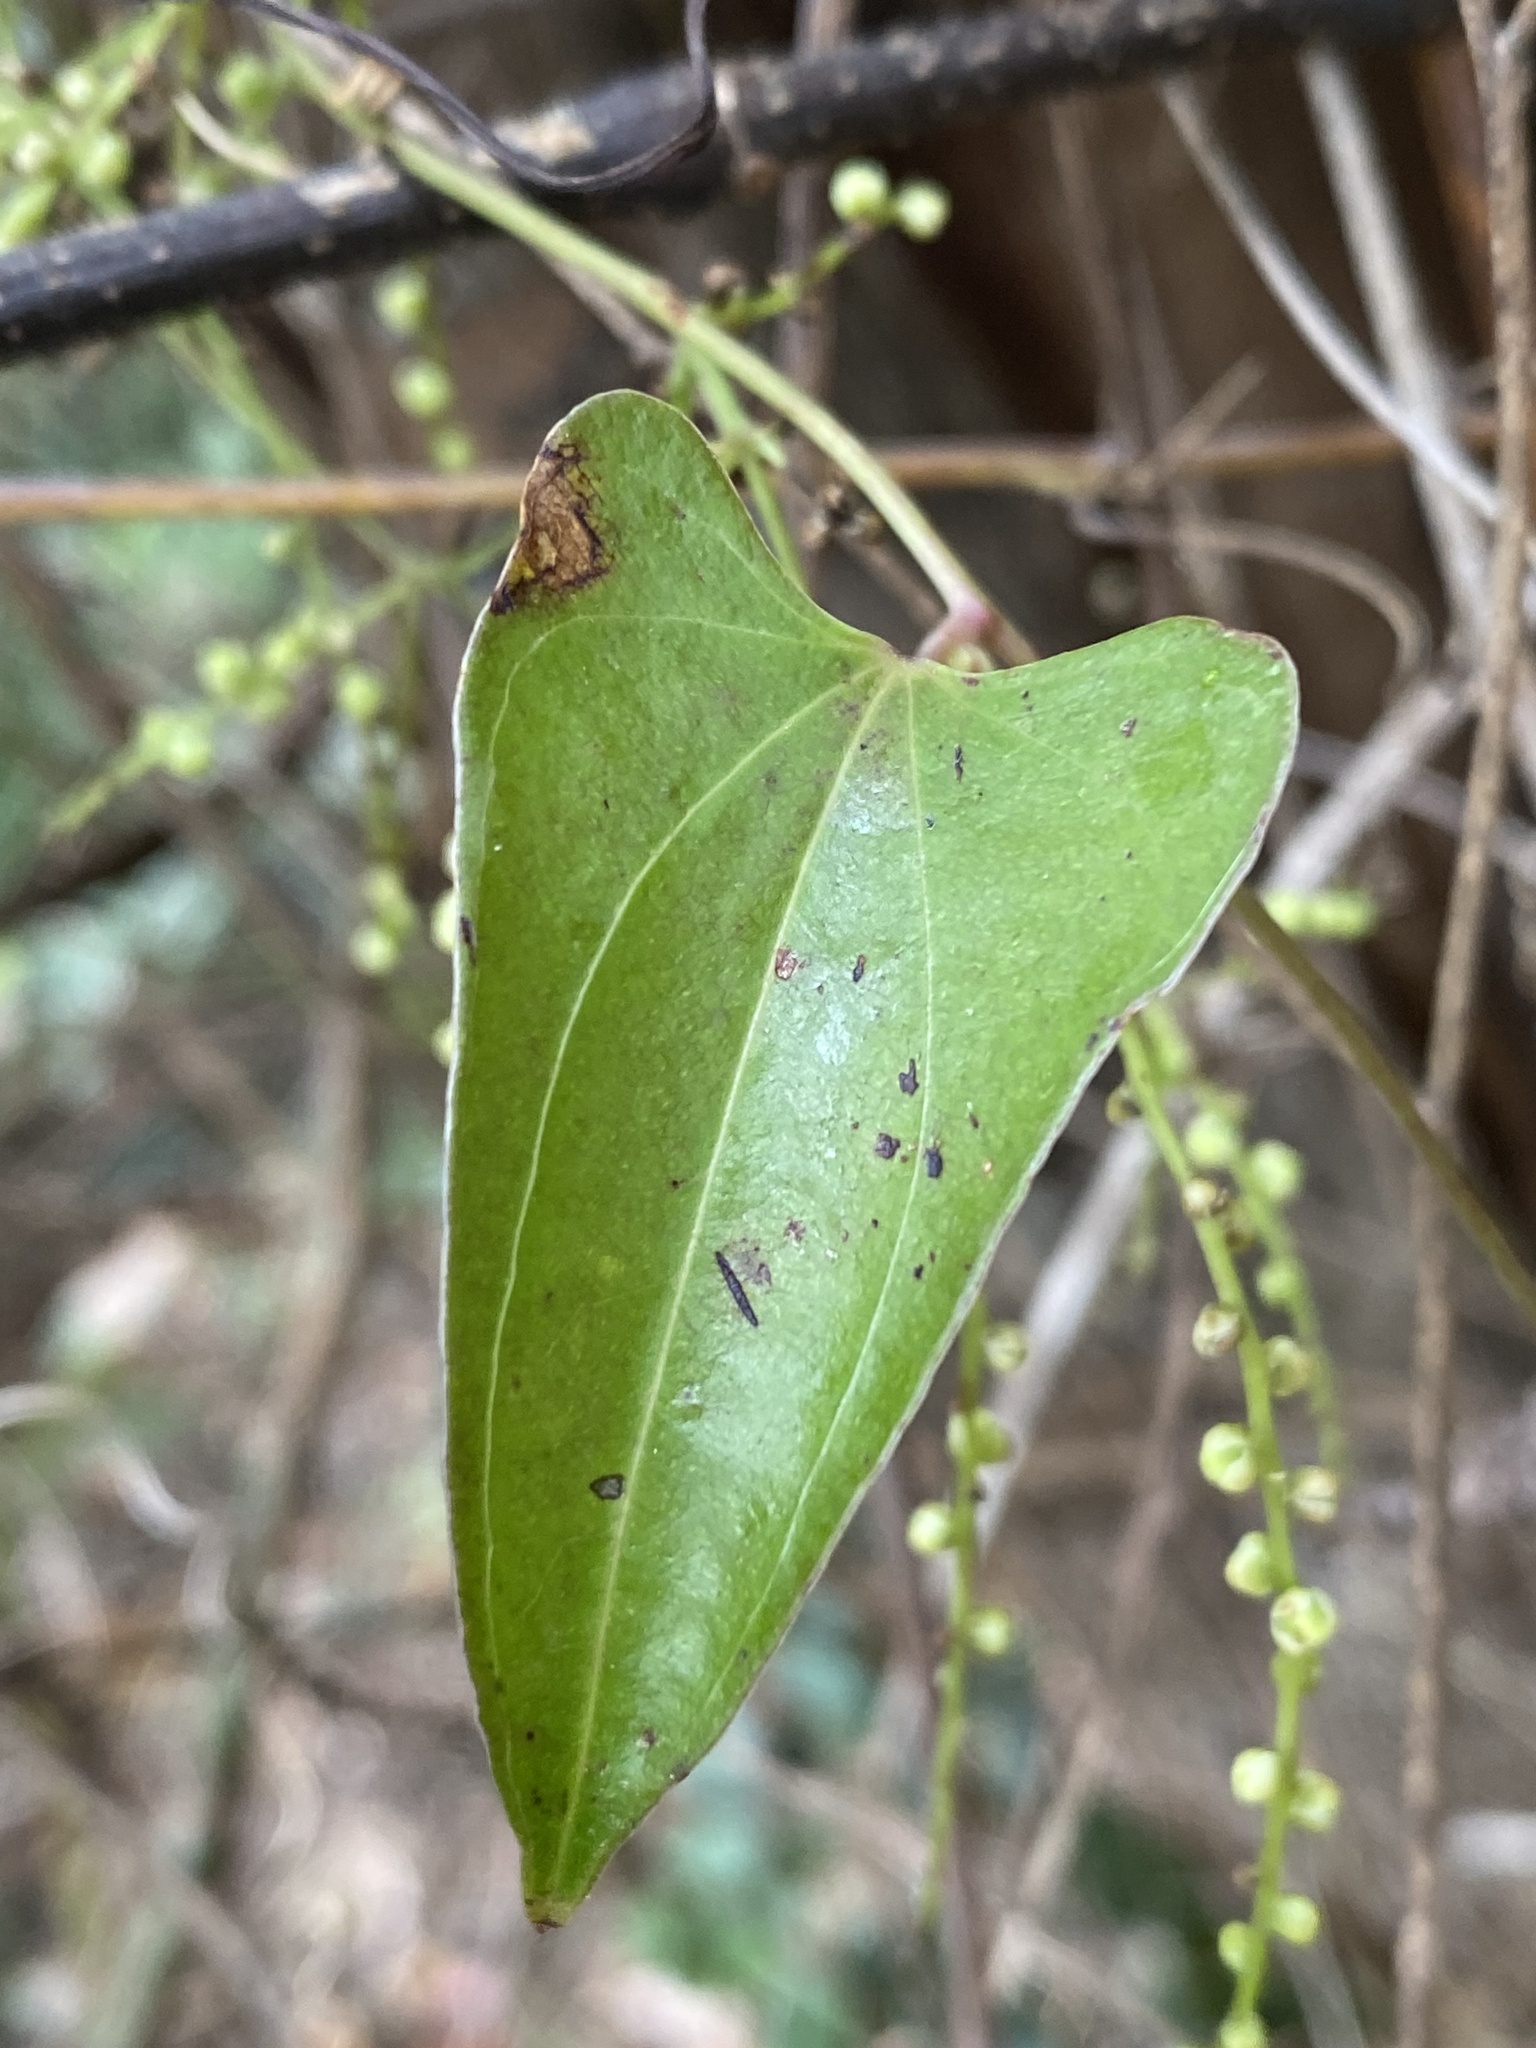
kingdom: Plantae
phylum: Tracheophyta
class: Liliopsida
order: Dioscoreales
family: Dioscoreaceae
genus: Dioscorea
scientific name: Dioscorea transversa
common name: Long yam
